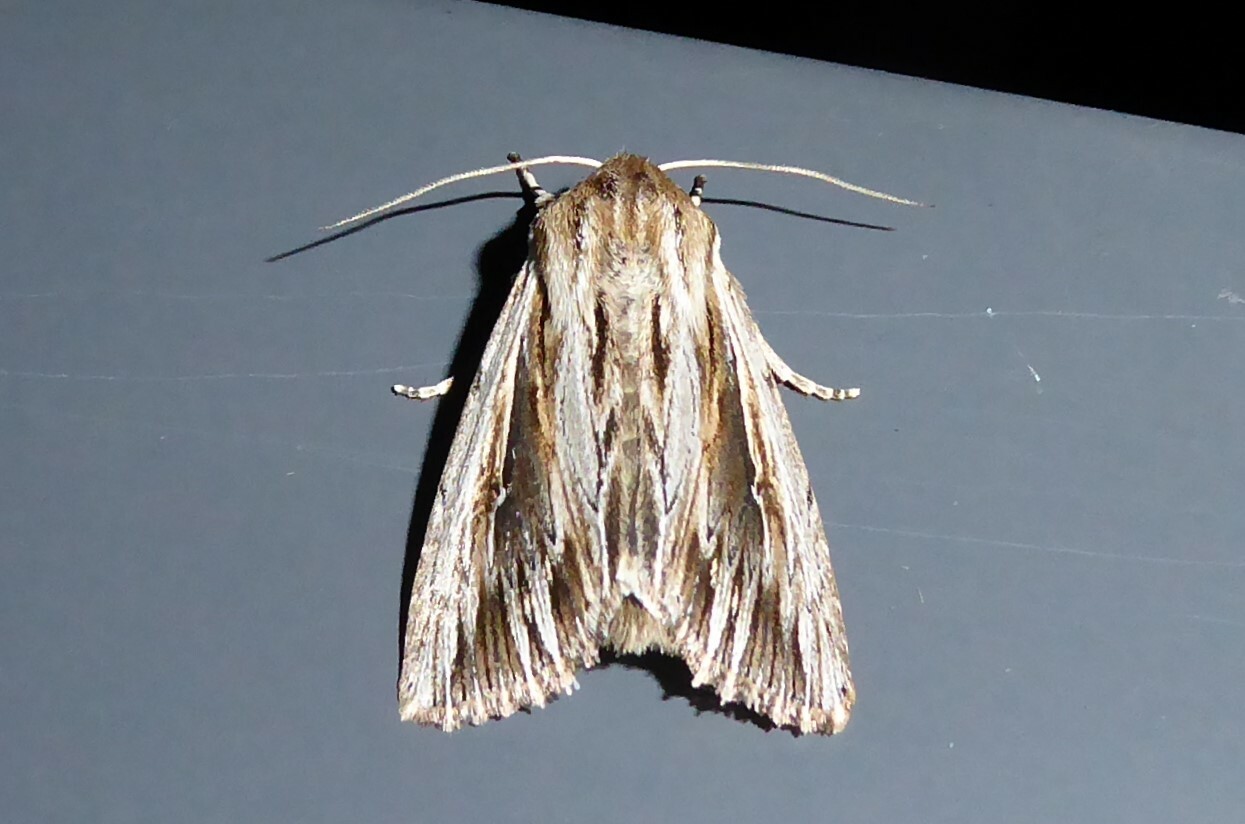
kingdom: Animalia
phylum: Arthropoda
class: Insecta
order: Lepidoptera
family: Noctuidae
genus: Persectania
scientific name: Persectania aversa
